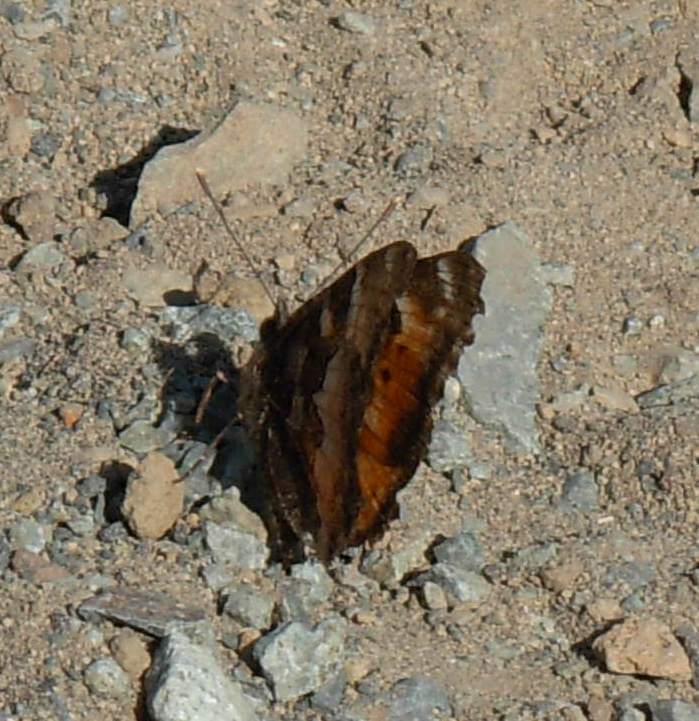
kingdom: Animalia
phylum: Arthropoda
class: Insecta
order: Lepidoptera
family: Nymphalidae
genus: Nymphalis
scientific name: Nymphalis californica
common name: California tortoiseshell
